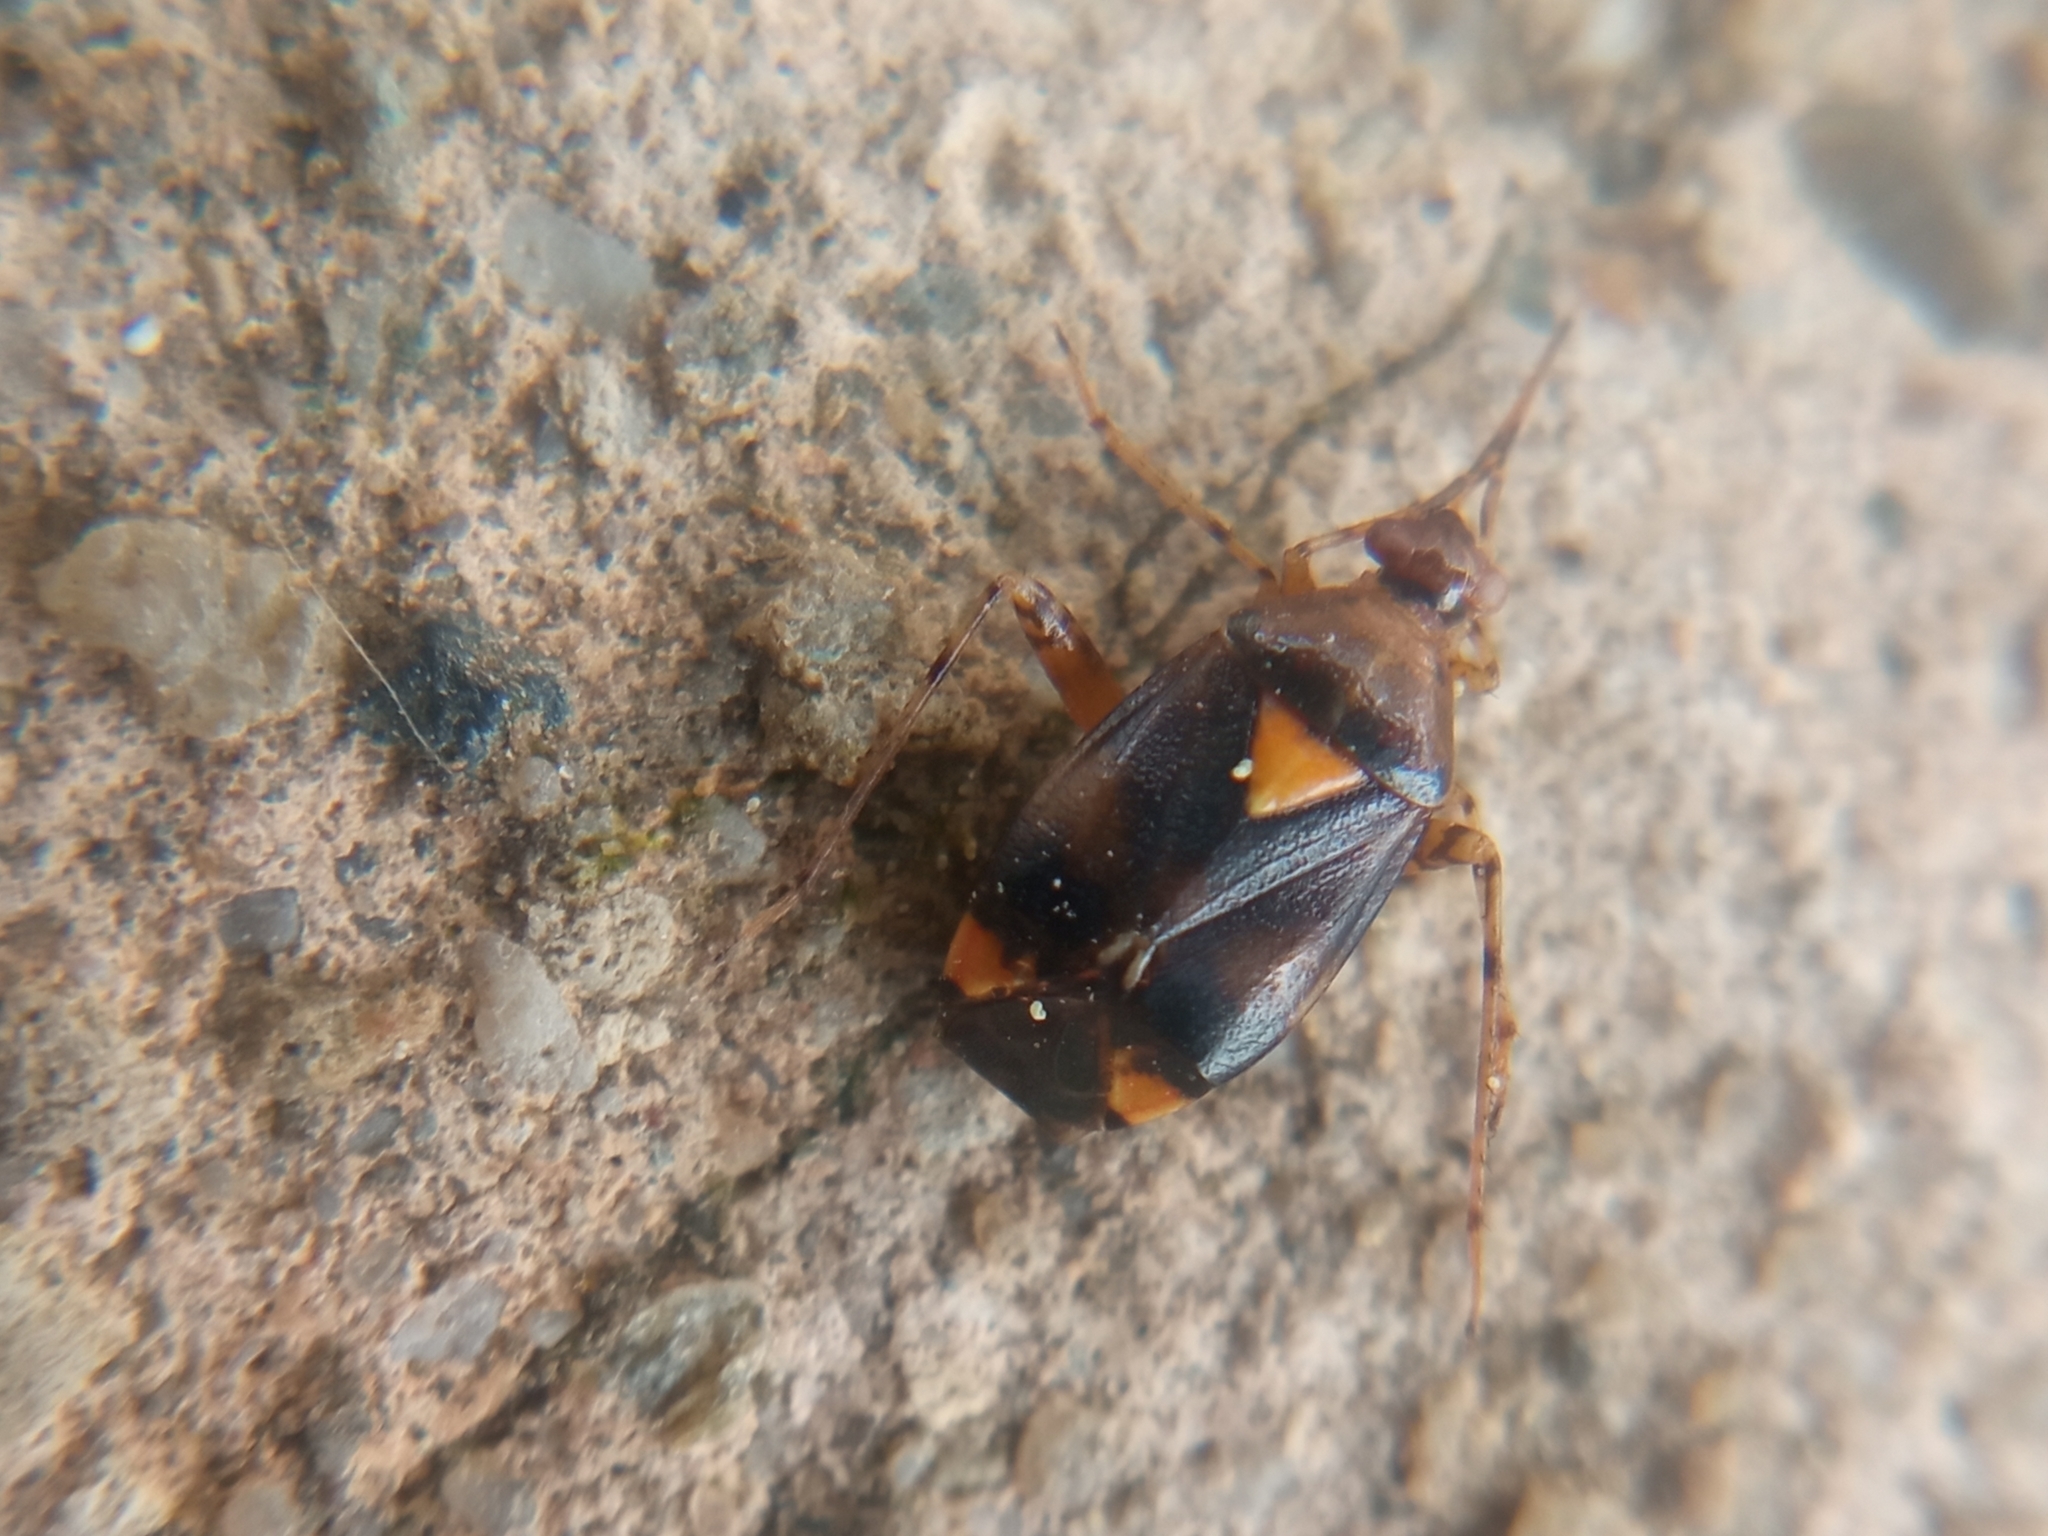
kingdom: Animalia
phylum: Arthropoda
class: Insecta
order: Hemiptera
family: Miridae
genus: Liocoris
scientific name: Liocoris tripustulatus
